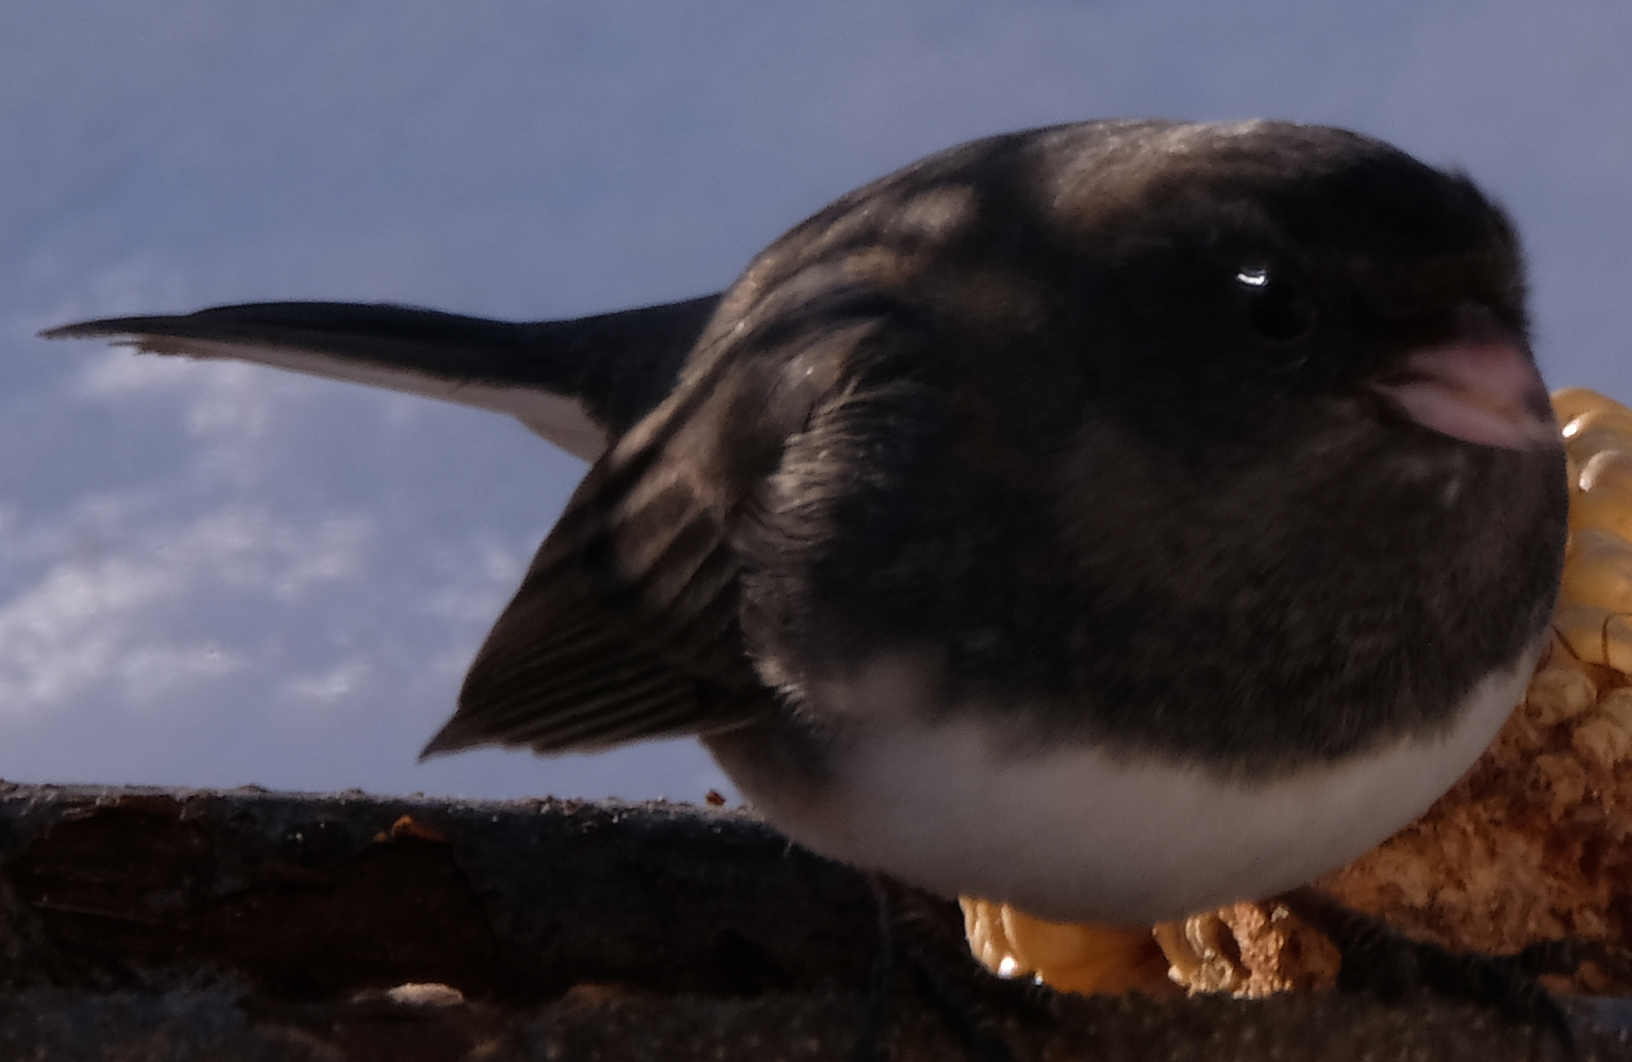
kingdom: Animalia
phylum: Chordata
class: Aves
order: Passeriformes
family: Passerellidae
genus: Junco
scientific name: Junco hyemalis
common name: Dark-eyed junco
